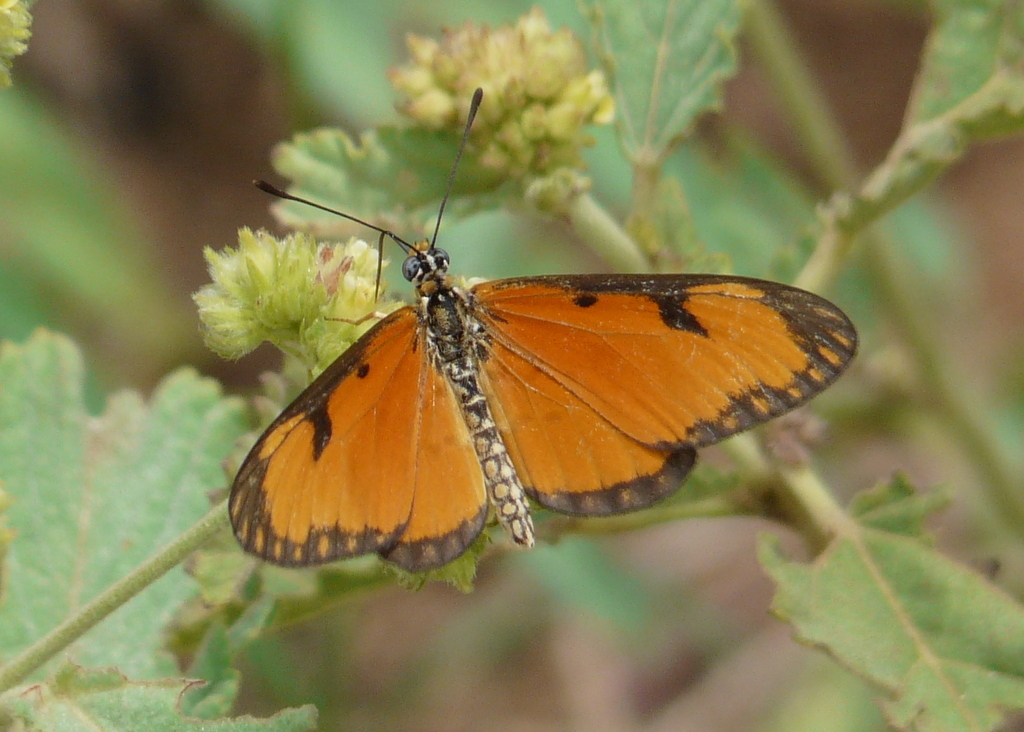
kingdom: Animalia
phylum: Arthropoda
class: Insecta
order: Lepidoptera
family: Nymphalidae
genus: Acraea
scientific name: Acraea Telchinia serena
